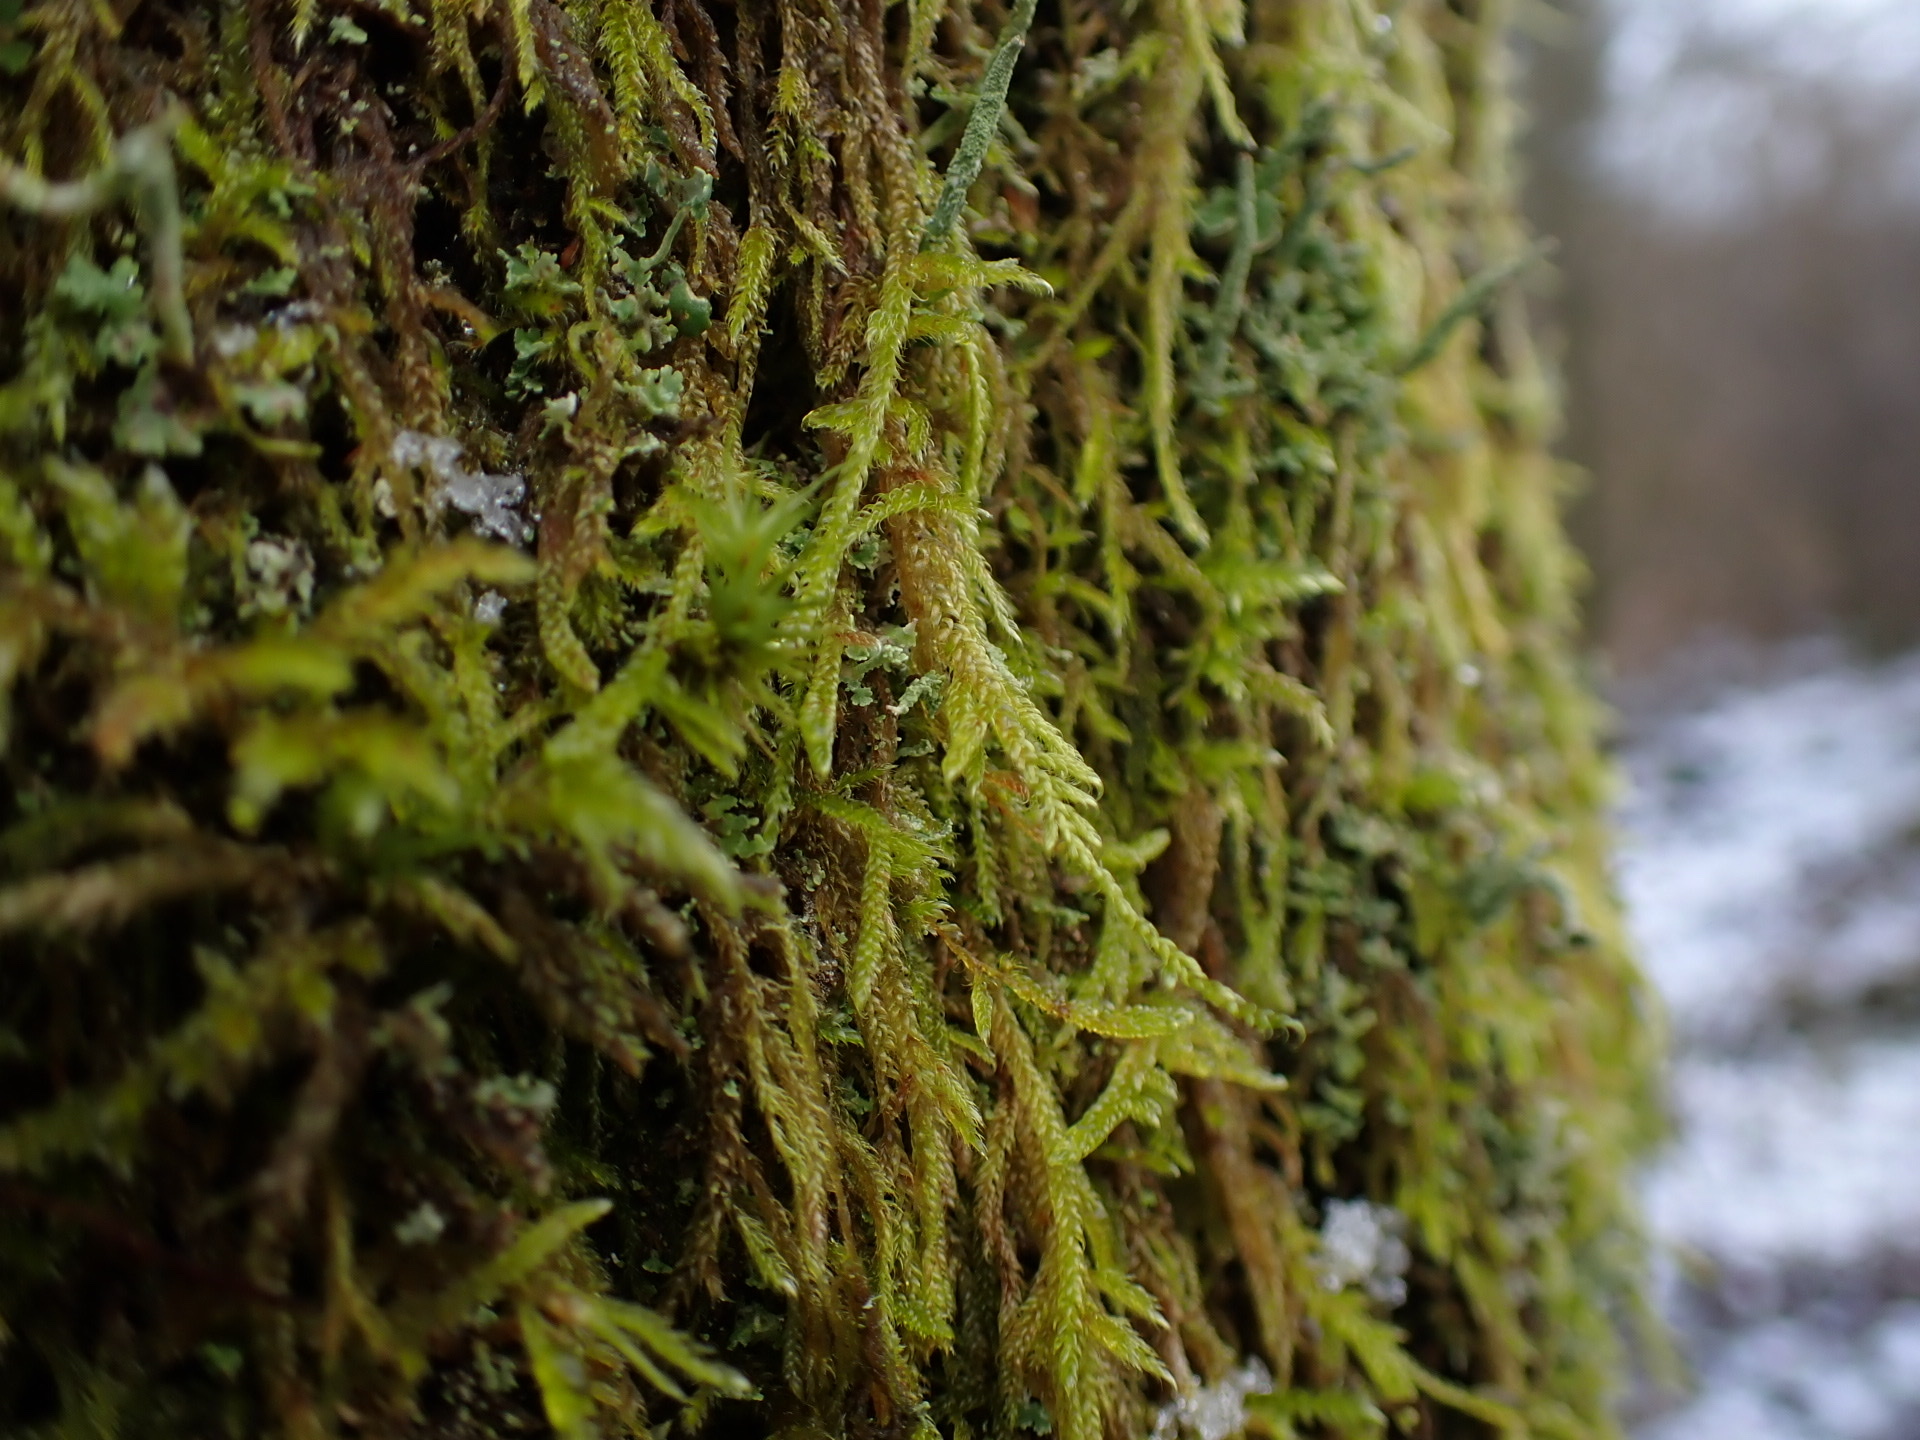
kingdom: Plantae
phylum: Bryophyta
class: Bryopsida
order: Hypnales
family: Hypnaceae
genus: Hypnum
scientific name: Hypnum cupressiforme
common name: Cypress-leaved plait-moss
